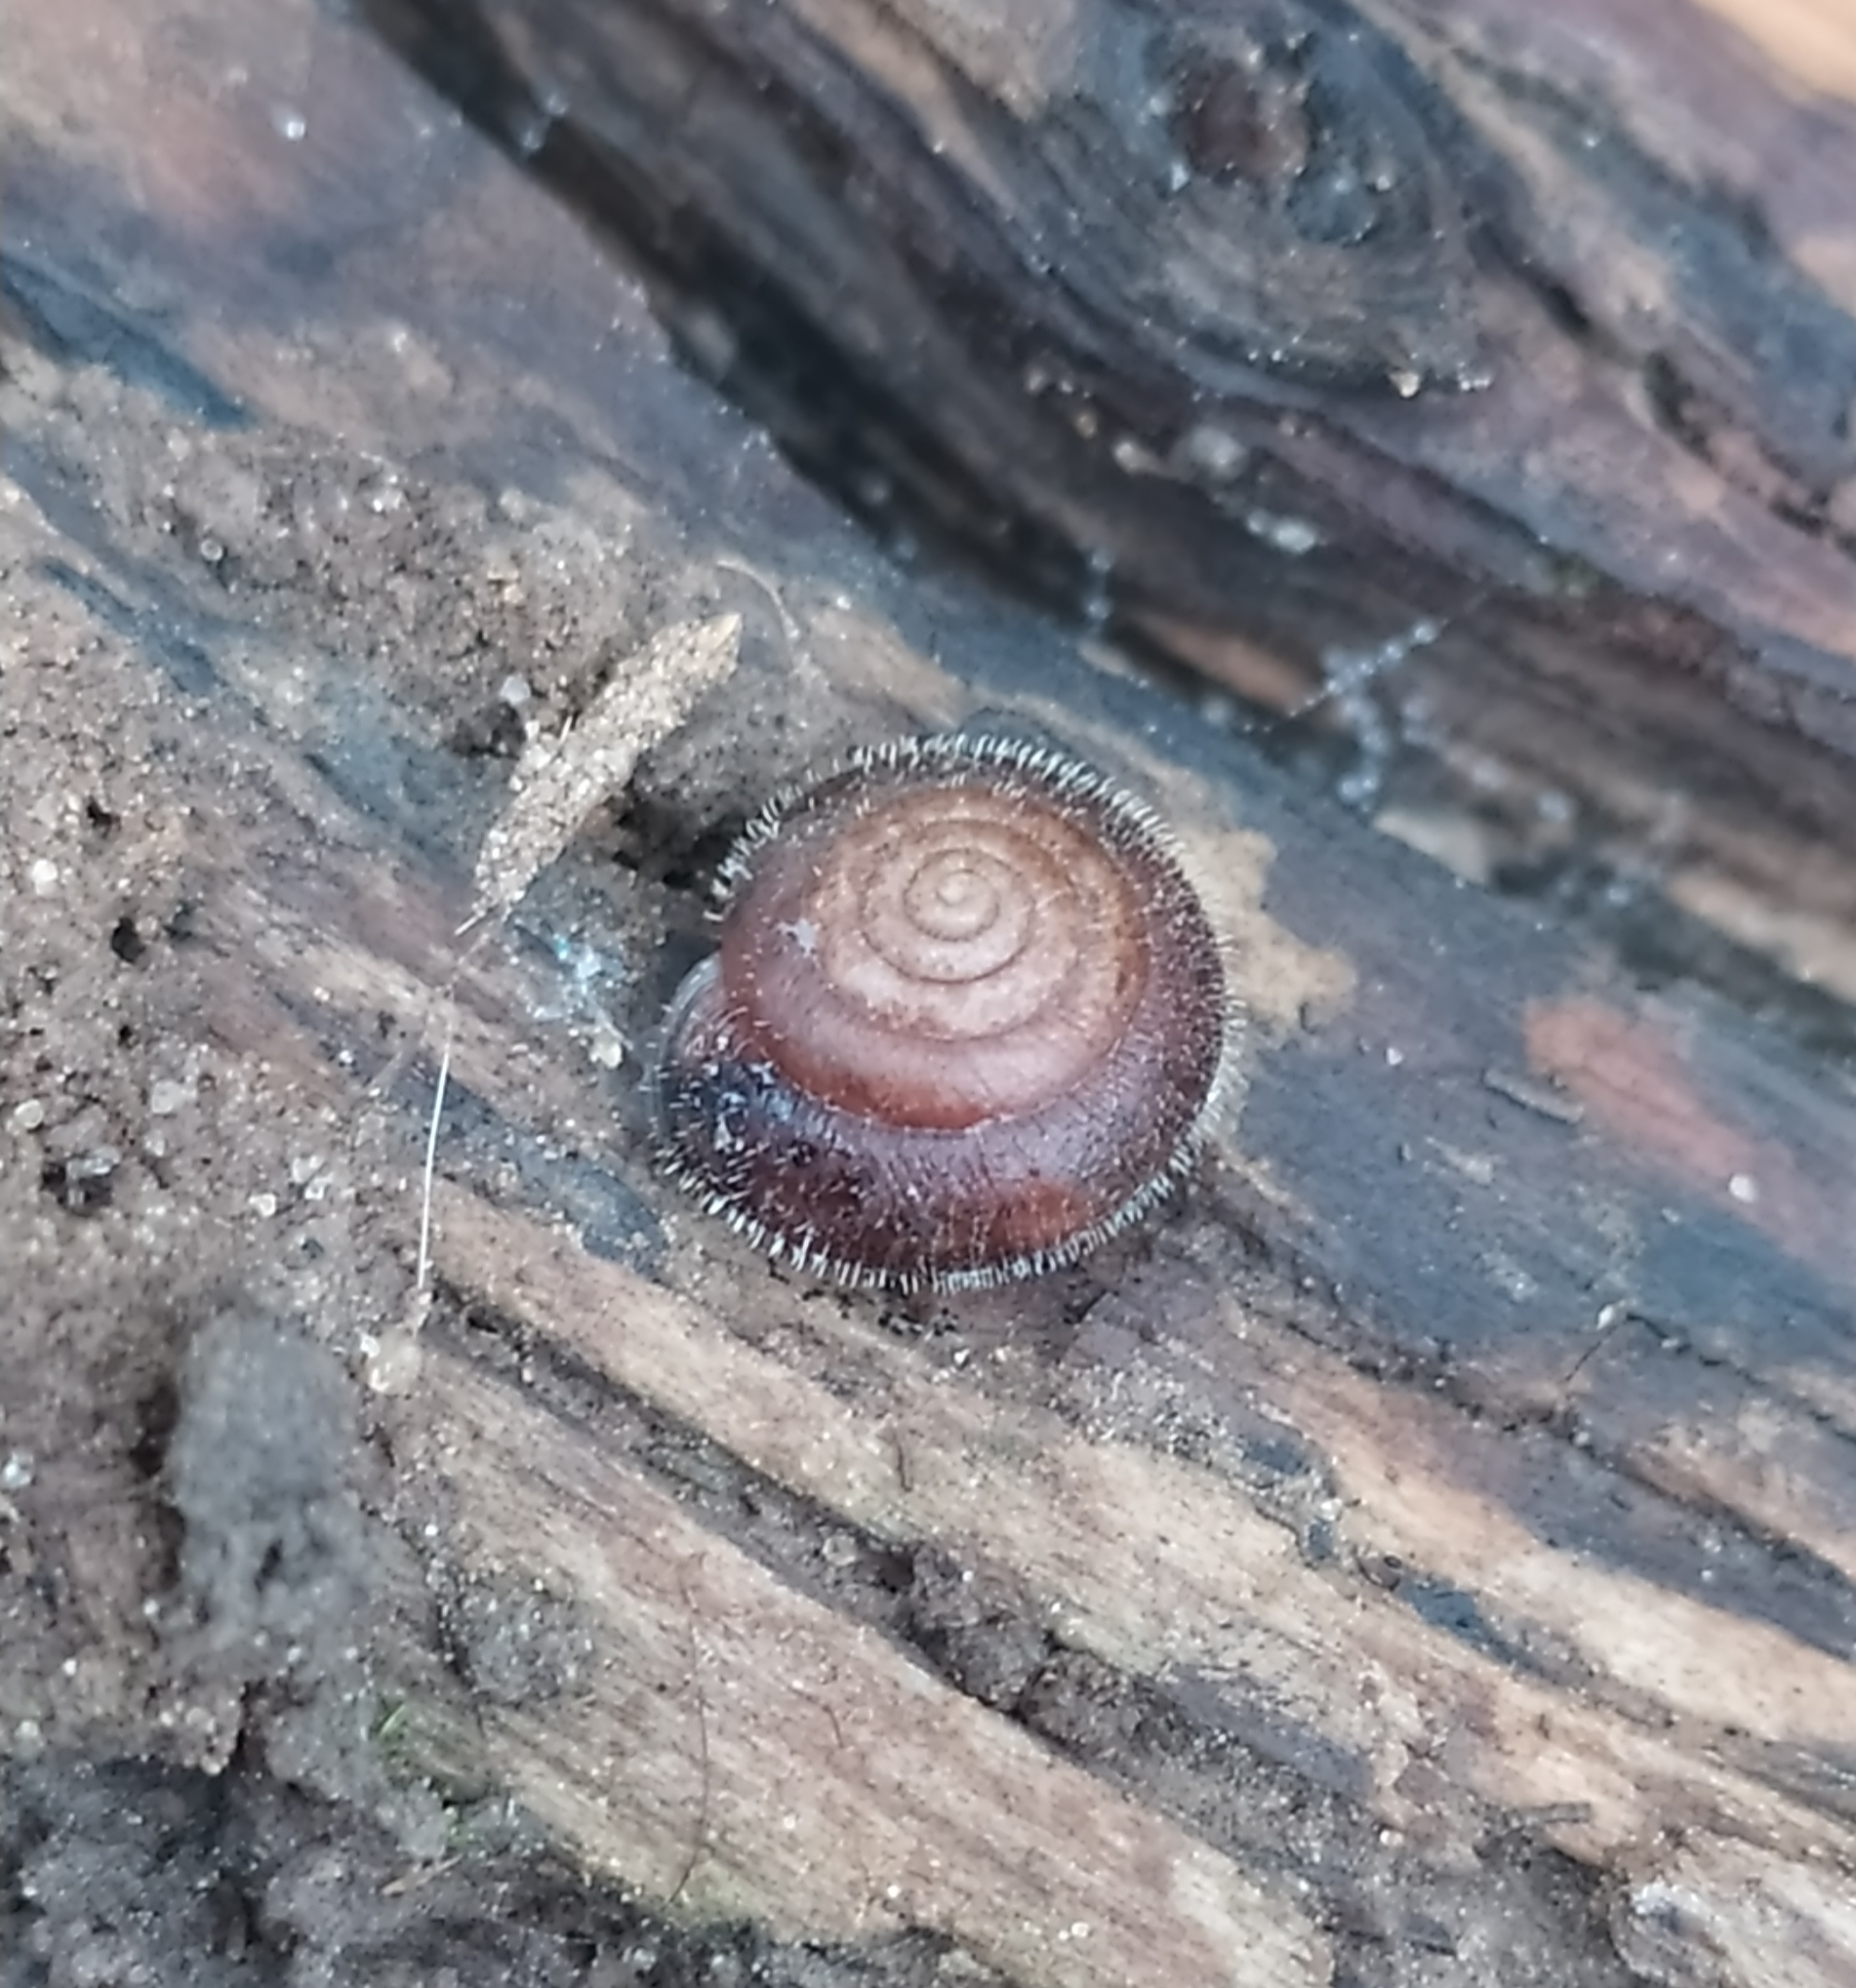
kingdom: Animalia
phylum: Mollusca
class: Gastropoda
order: Stylommatophora
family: Hygromiidae
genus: Trochulus
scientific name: Trochulus hispidus
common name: Hairy snail
